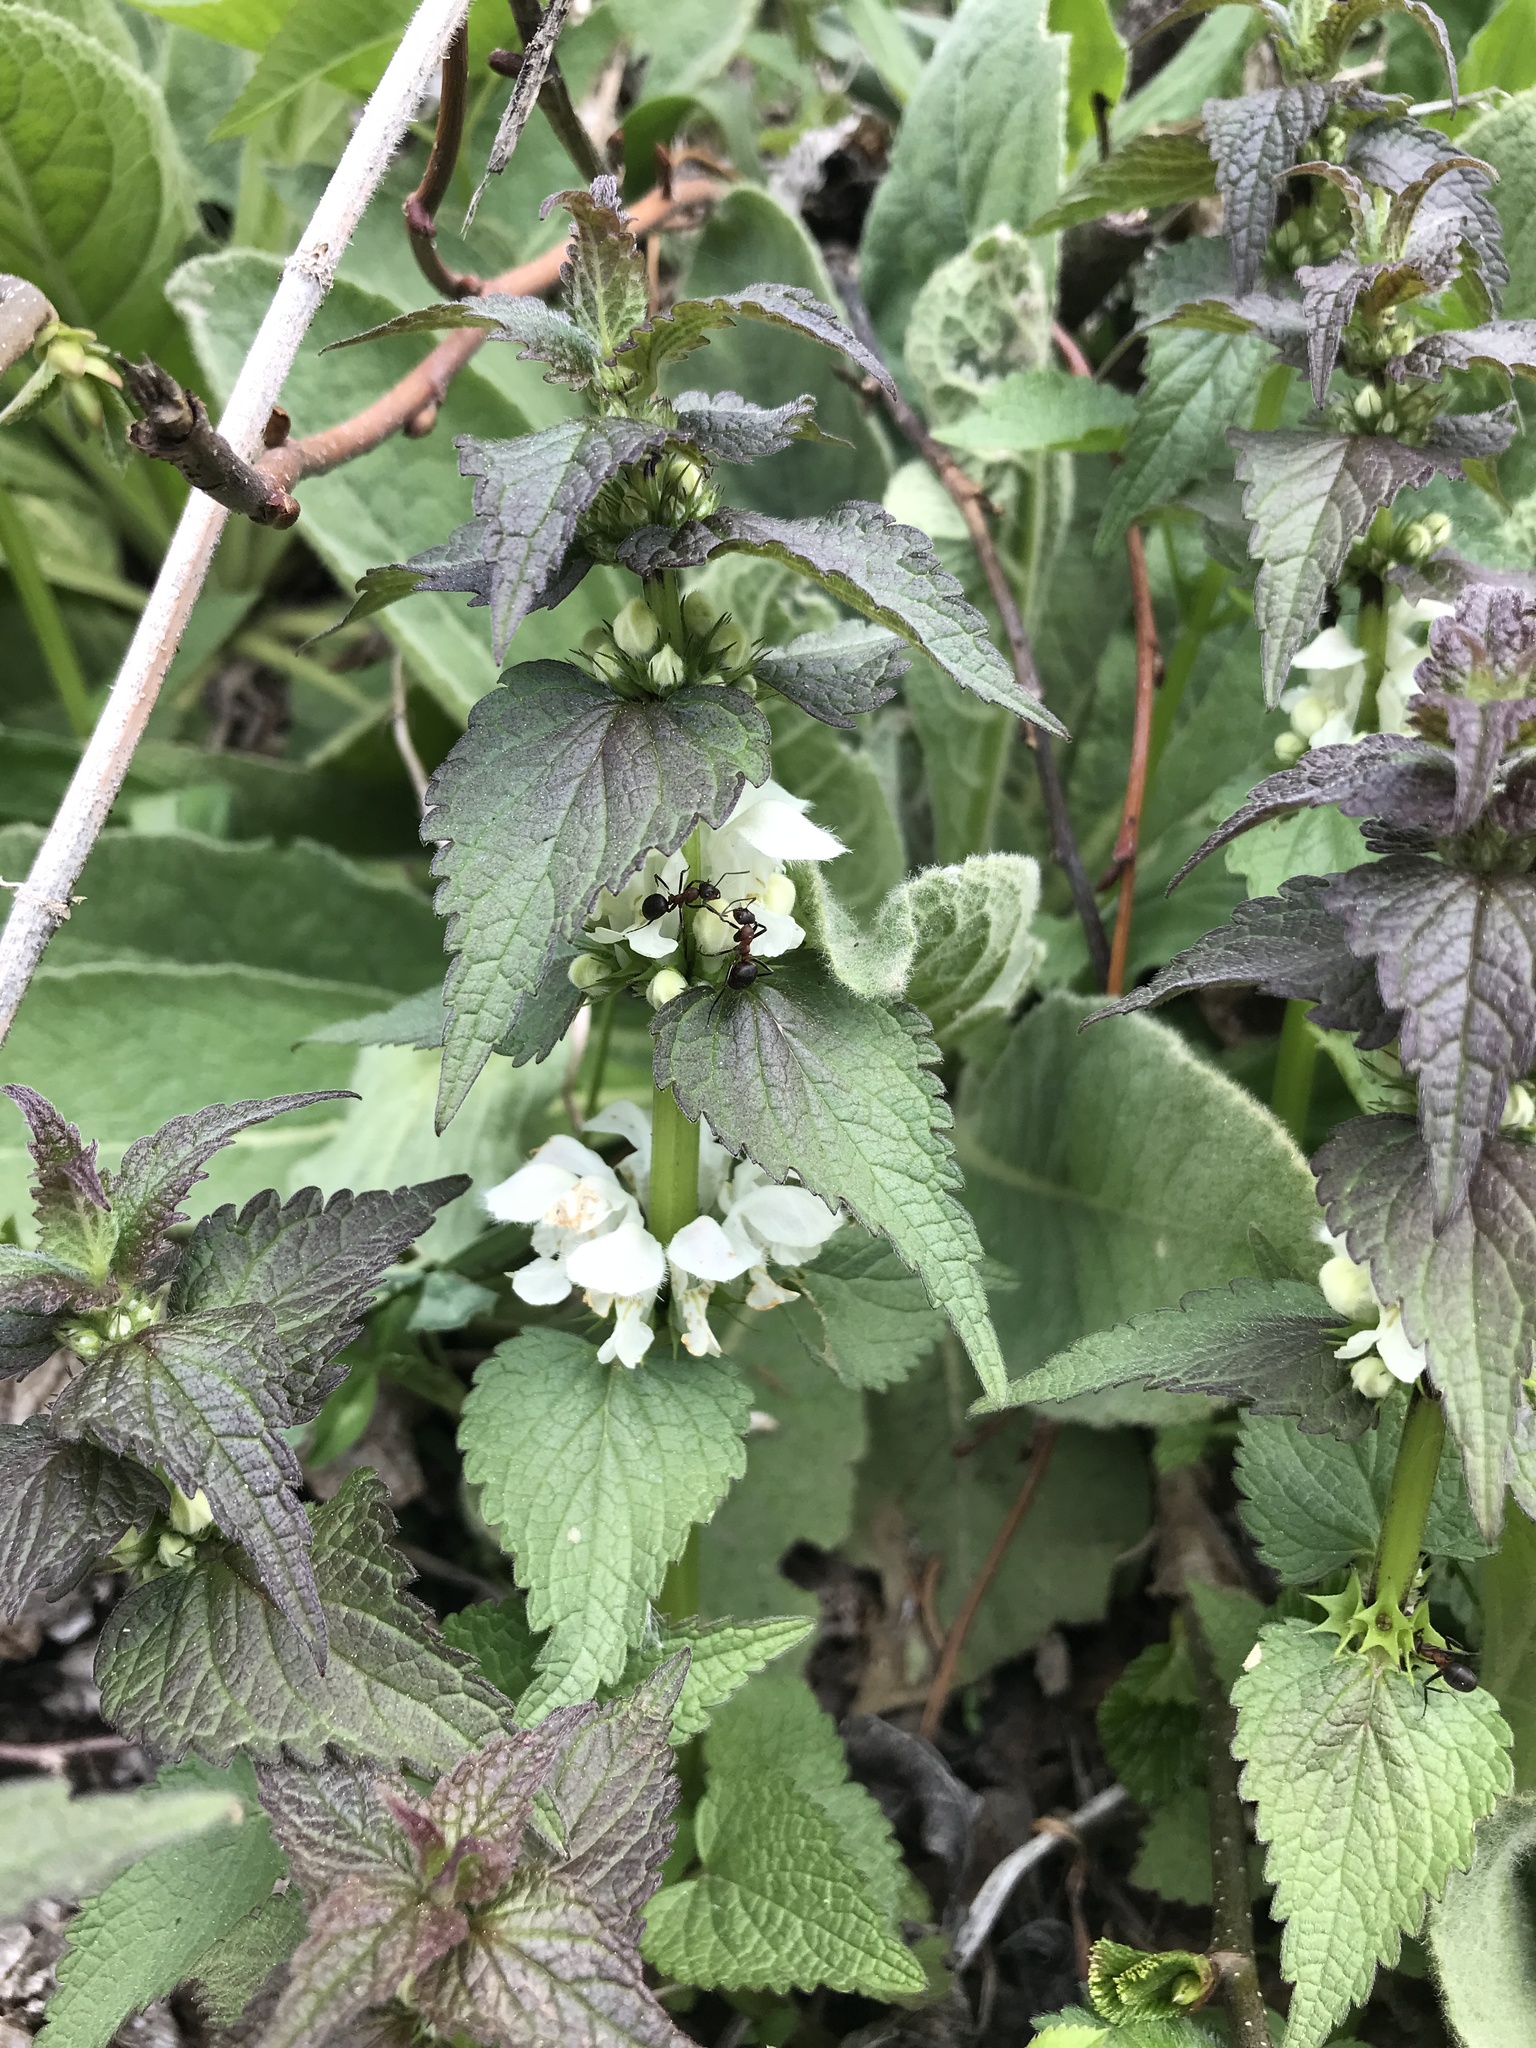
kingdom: Plantae
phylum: Tracheophyta
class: Magnoliopsida
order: Lamiales
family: Lamiaceae
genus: Lamium
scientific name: Lamium album
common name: White dead-nettle
